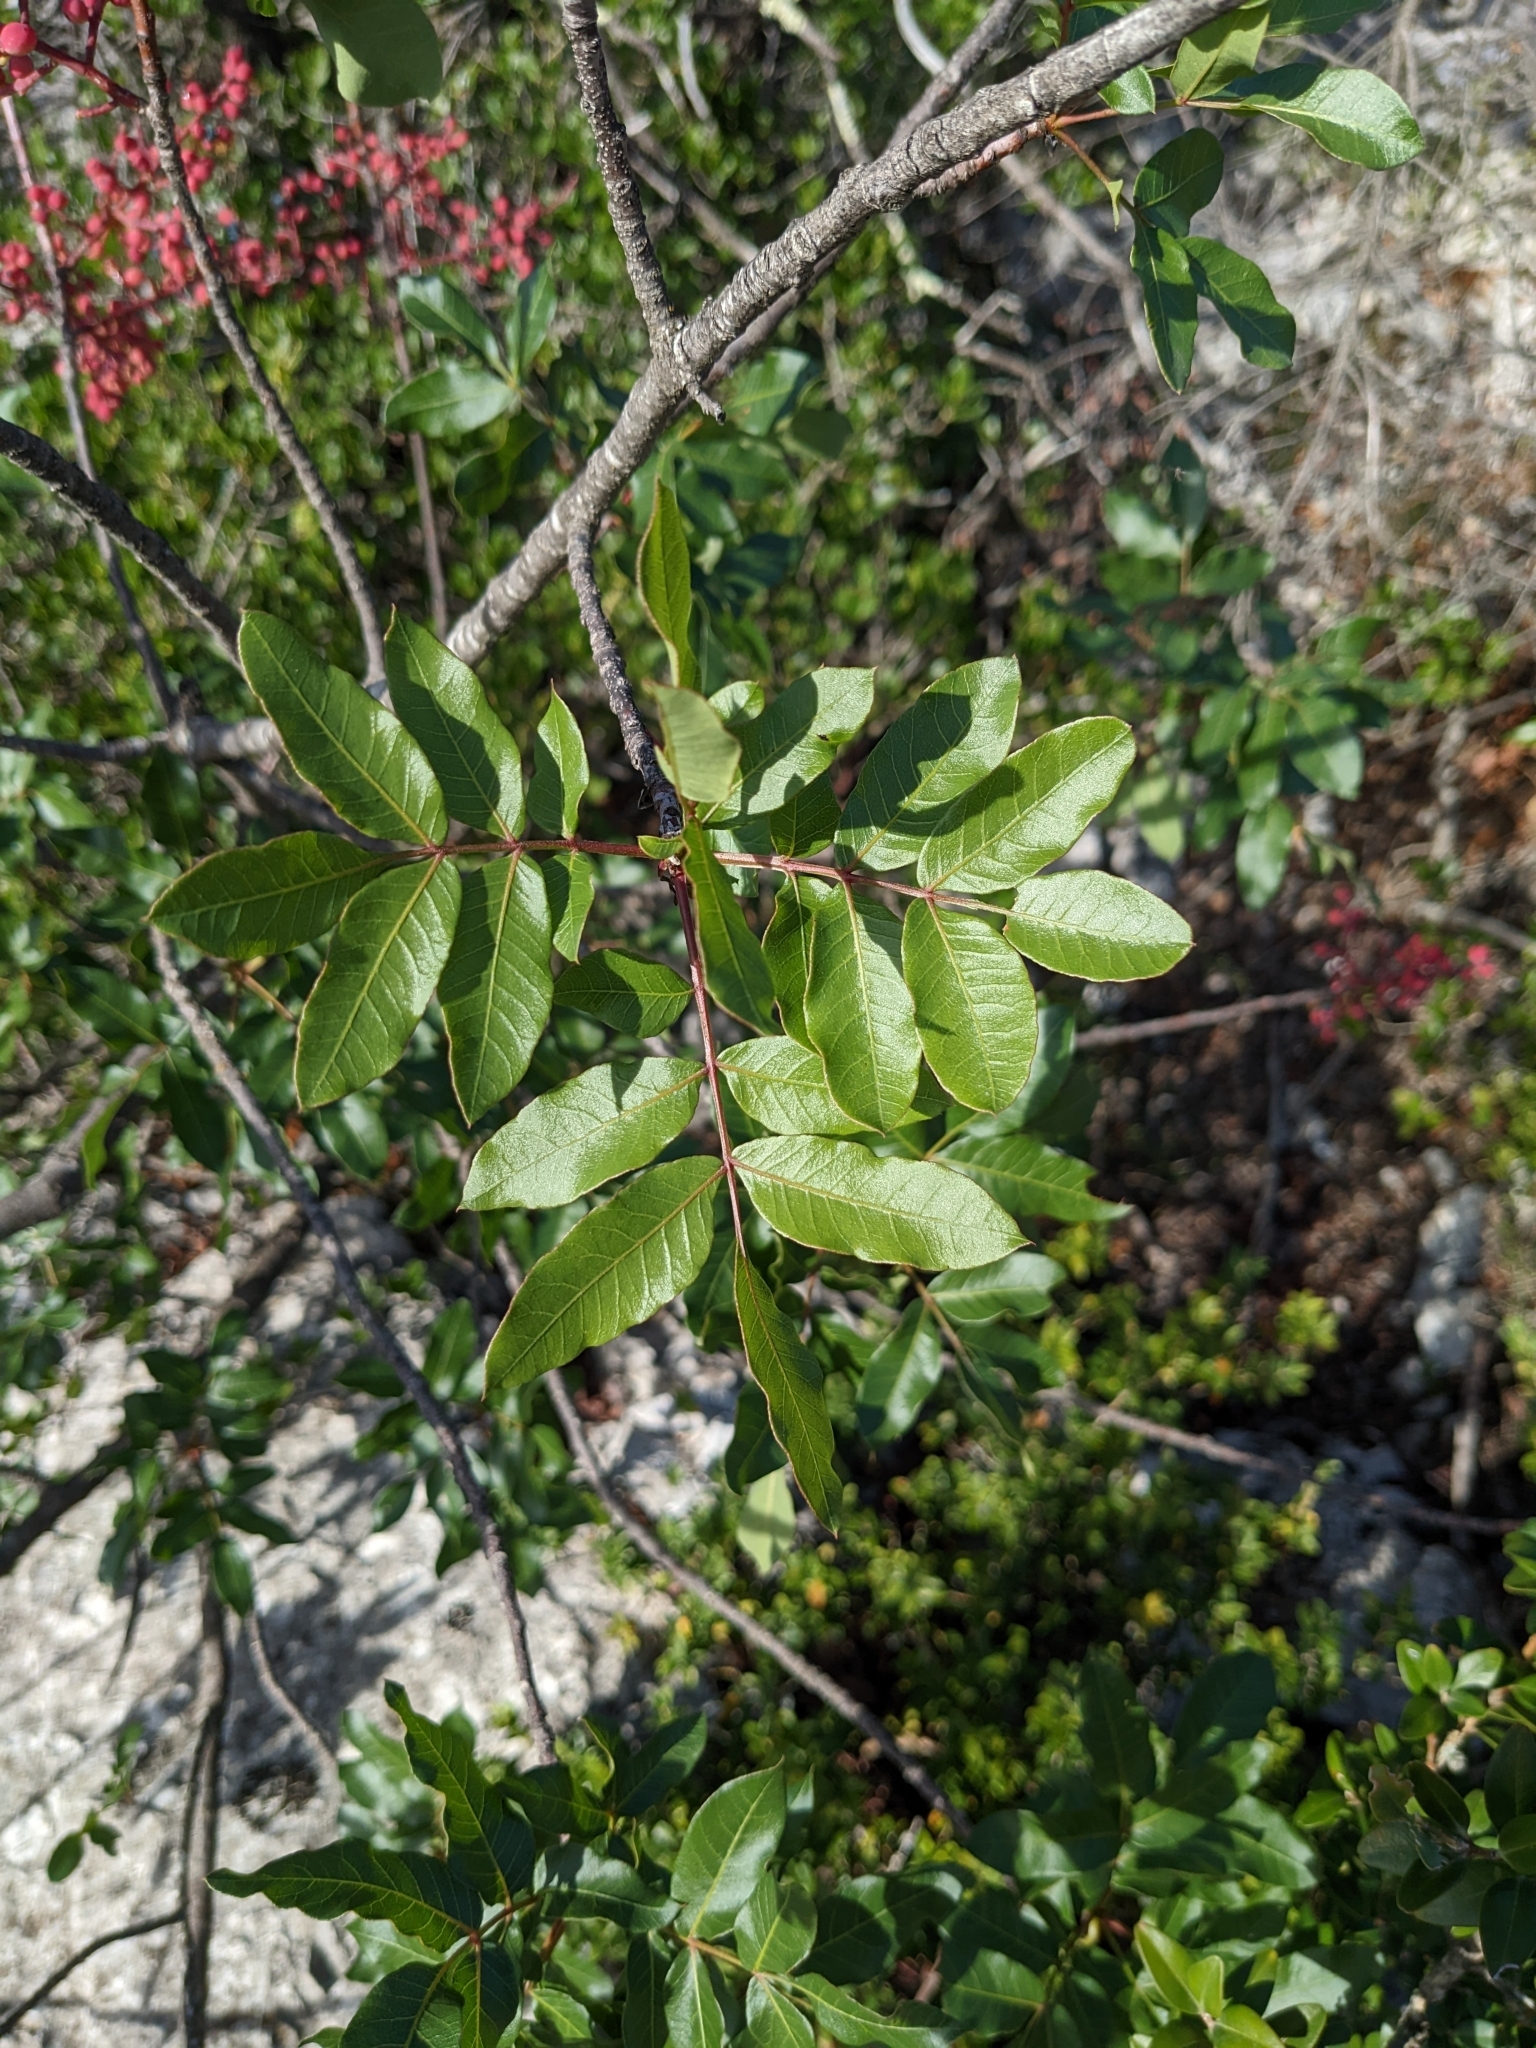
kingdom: Plantae
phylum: Tracheophyta
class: Magnoliopsida
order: Sapindales
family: Anacardiaceae
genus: Pistacia
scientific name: Pistacia terebinthus
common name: Terebinth
